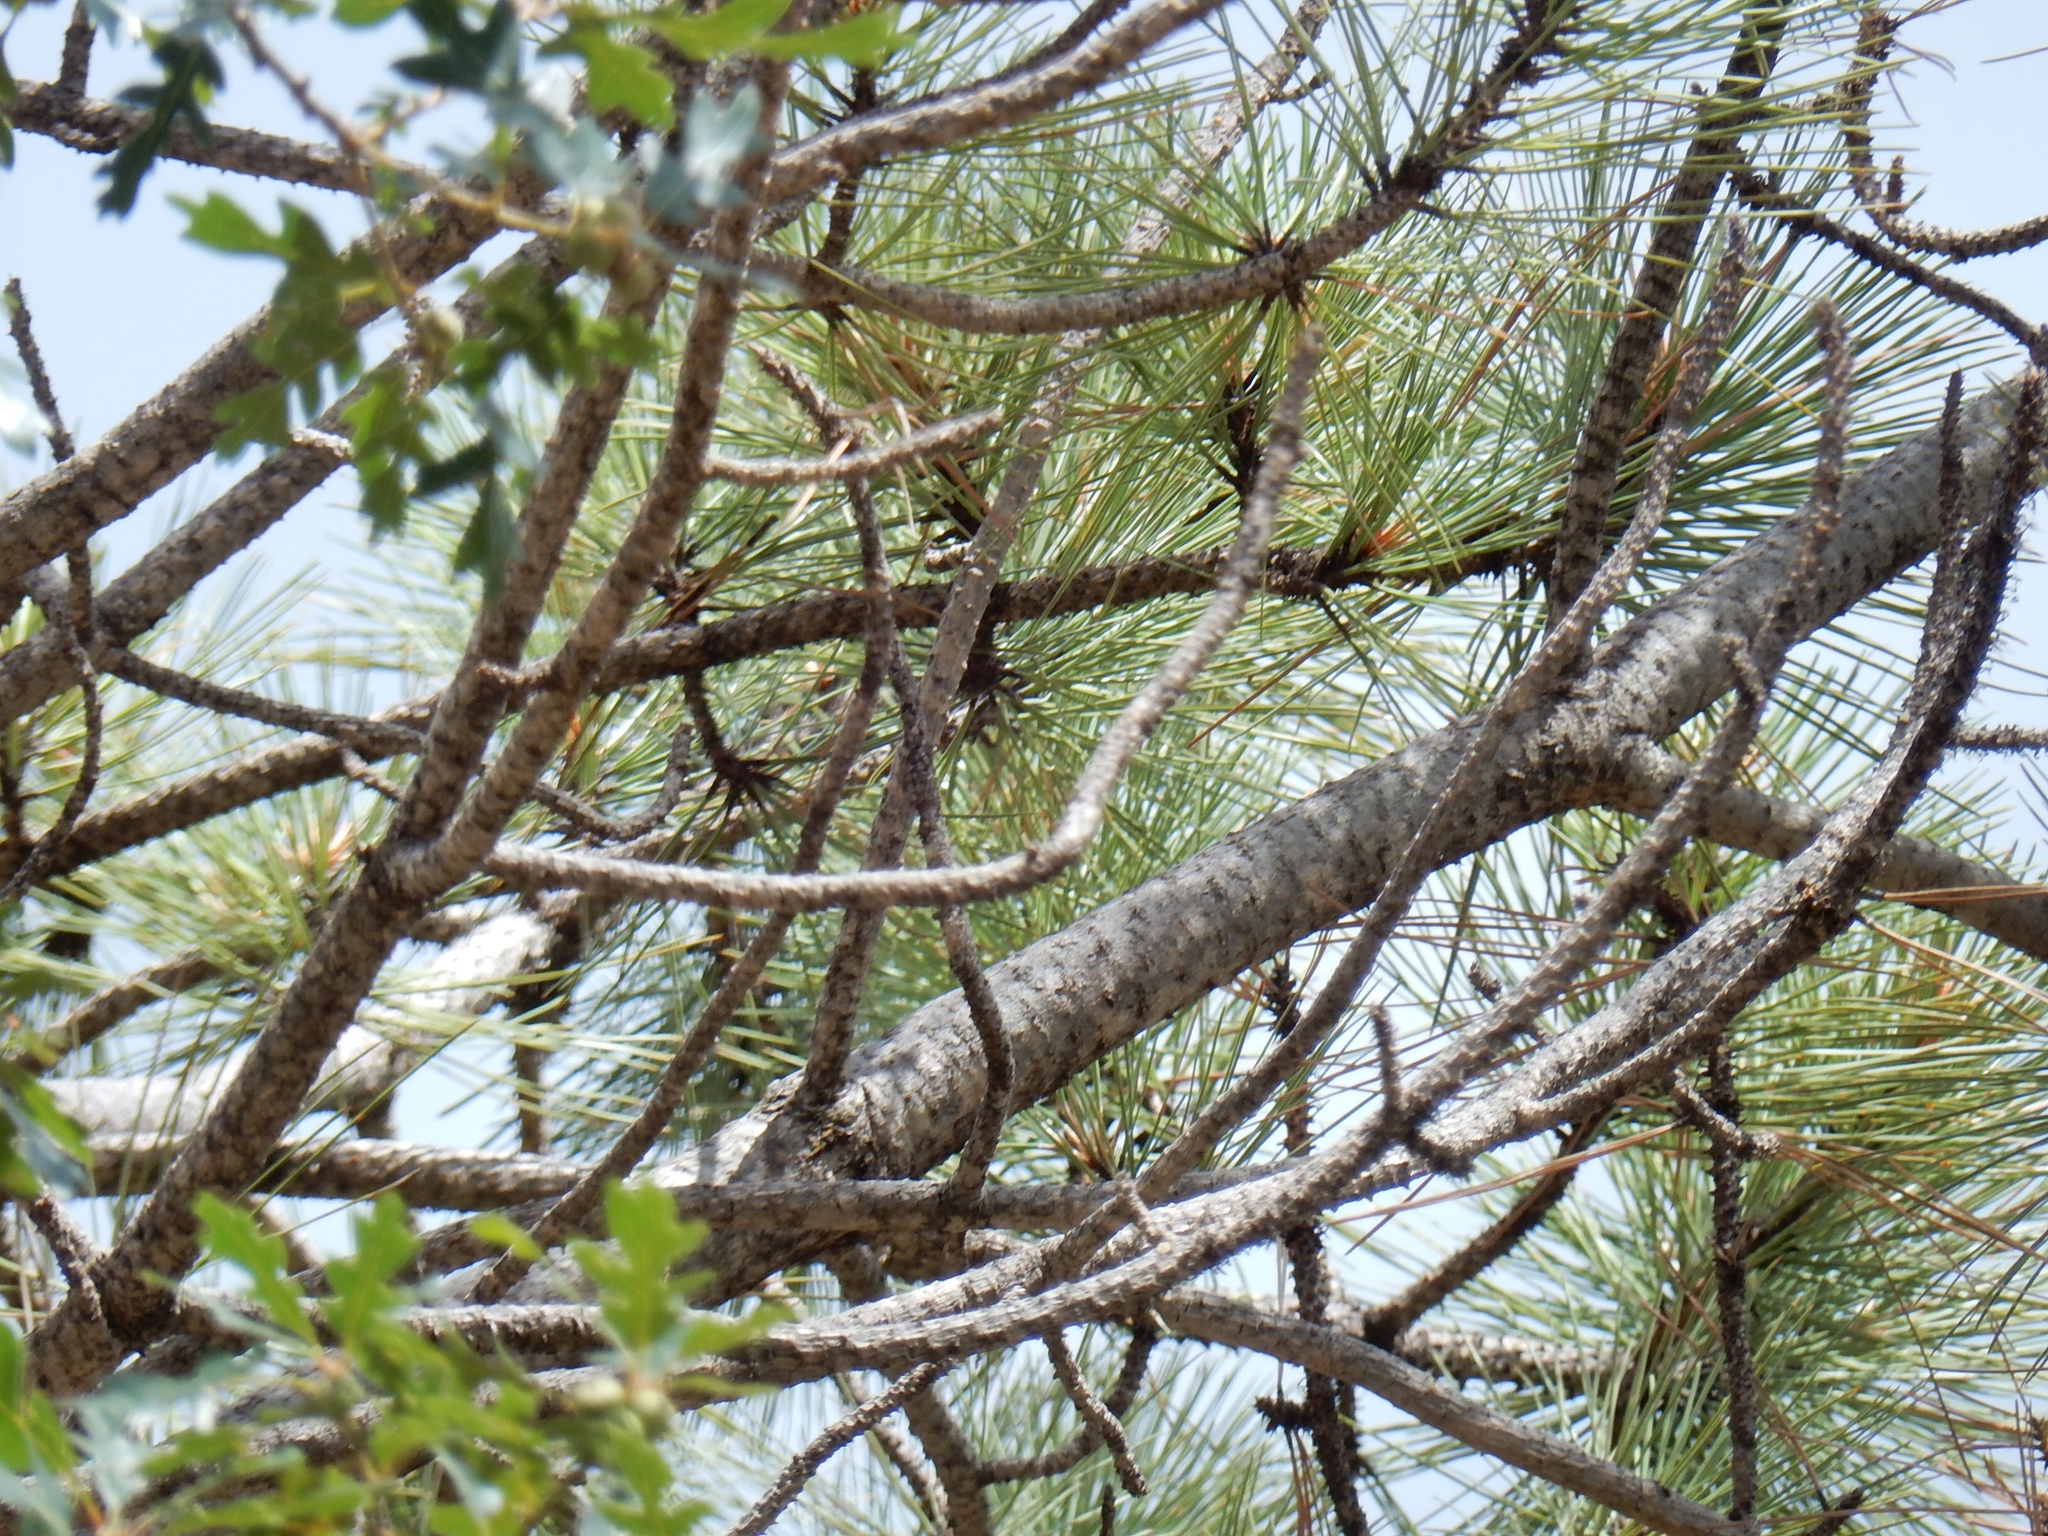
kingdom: Plantae
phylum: Tracheophyta
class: Pinopsida
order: Pinales
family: Pinaceae
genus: Pinus
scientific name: Pinus ponderosa
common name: Western yellow-pine
